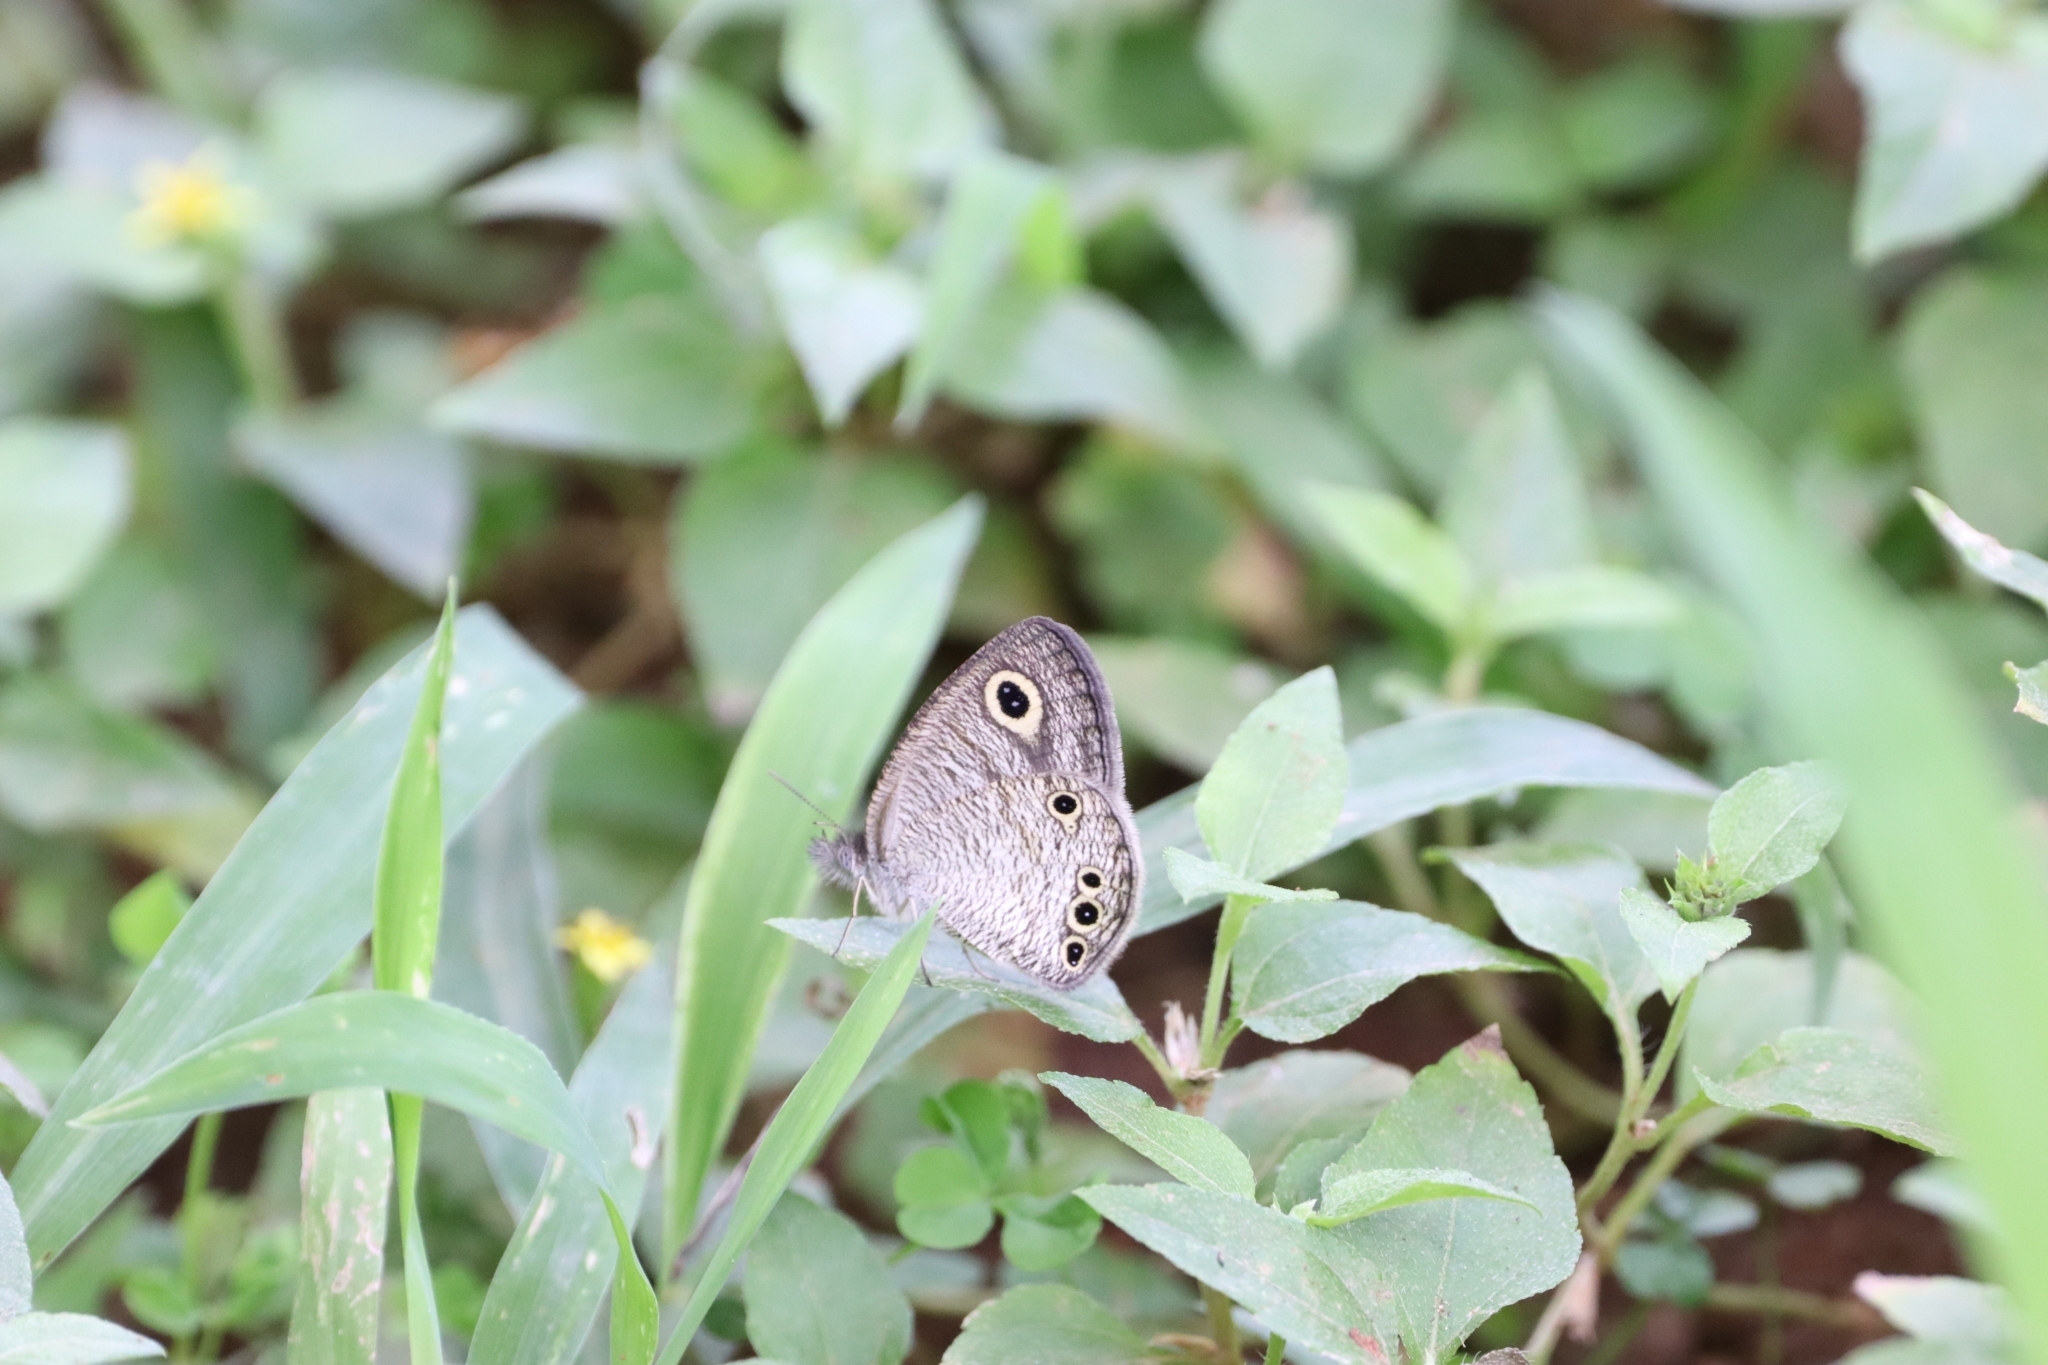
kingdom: Animalia
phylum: Arthropoda
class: Insecta
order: Lepidoptera
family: Nymphalidae
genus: Ypthima
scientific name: Ypthima huebneri
